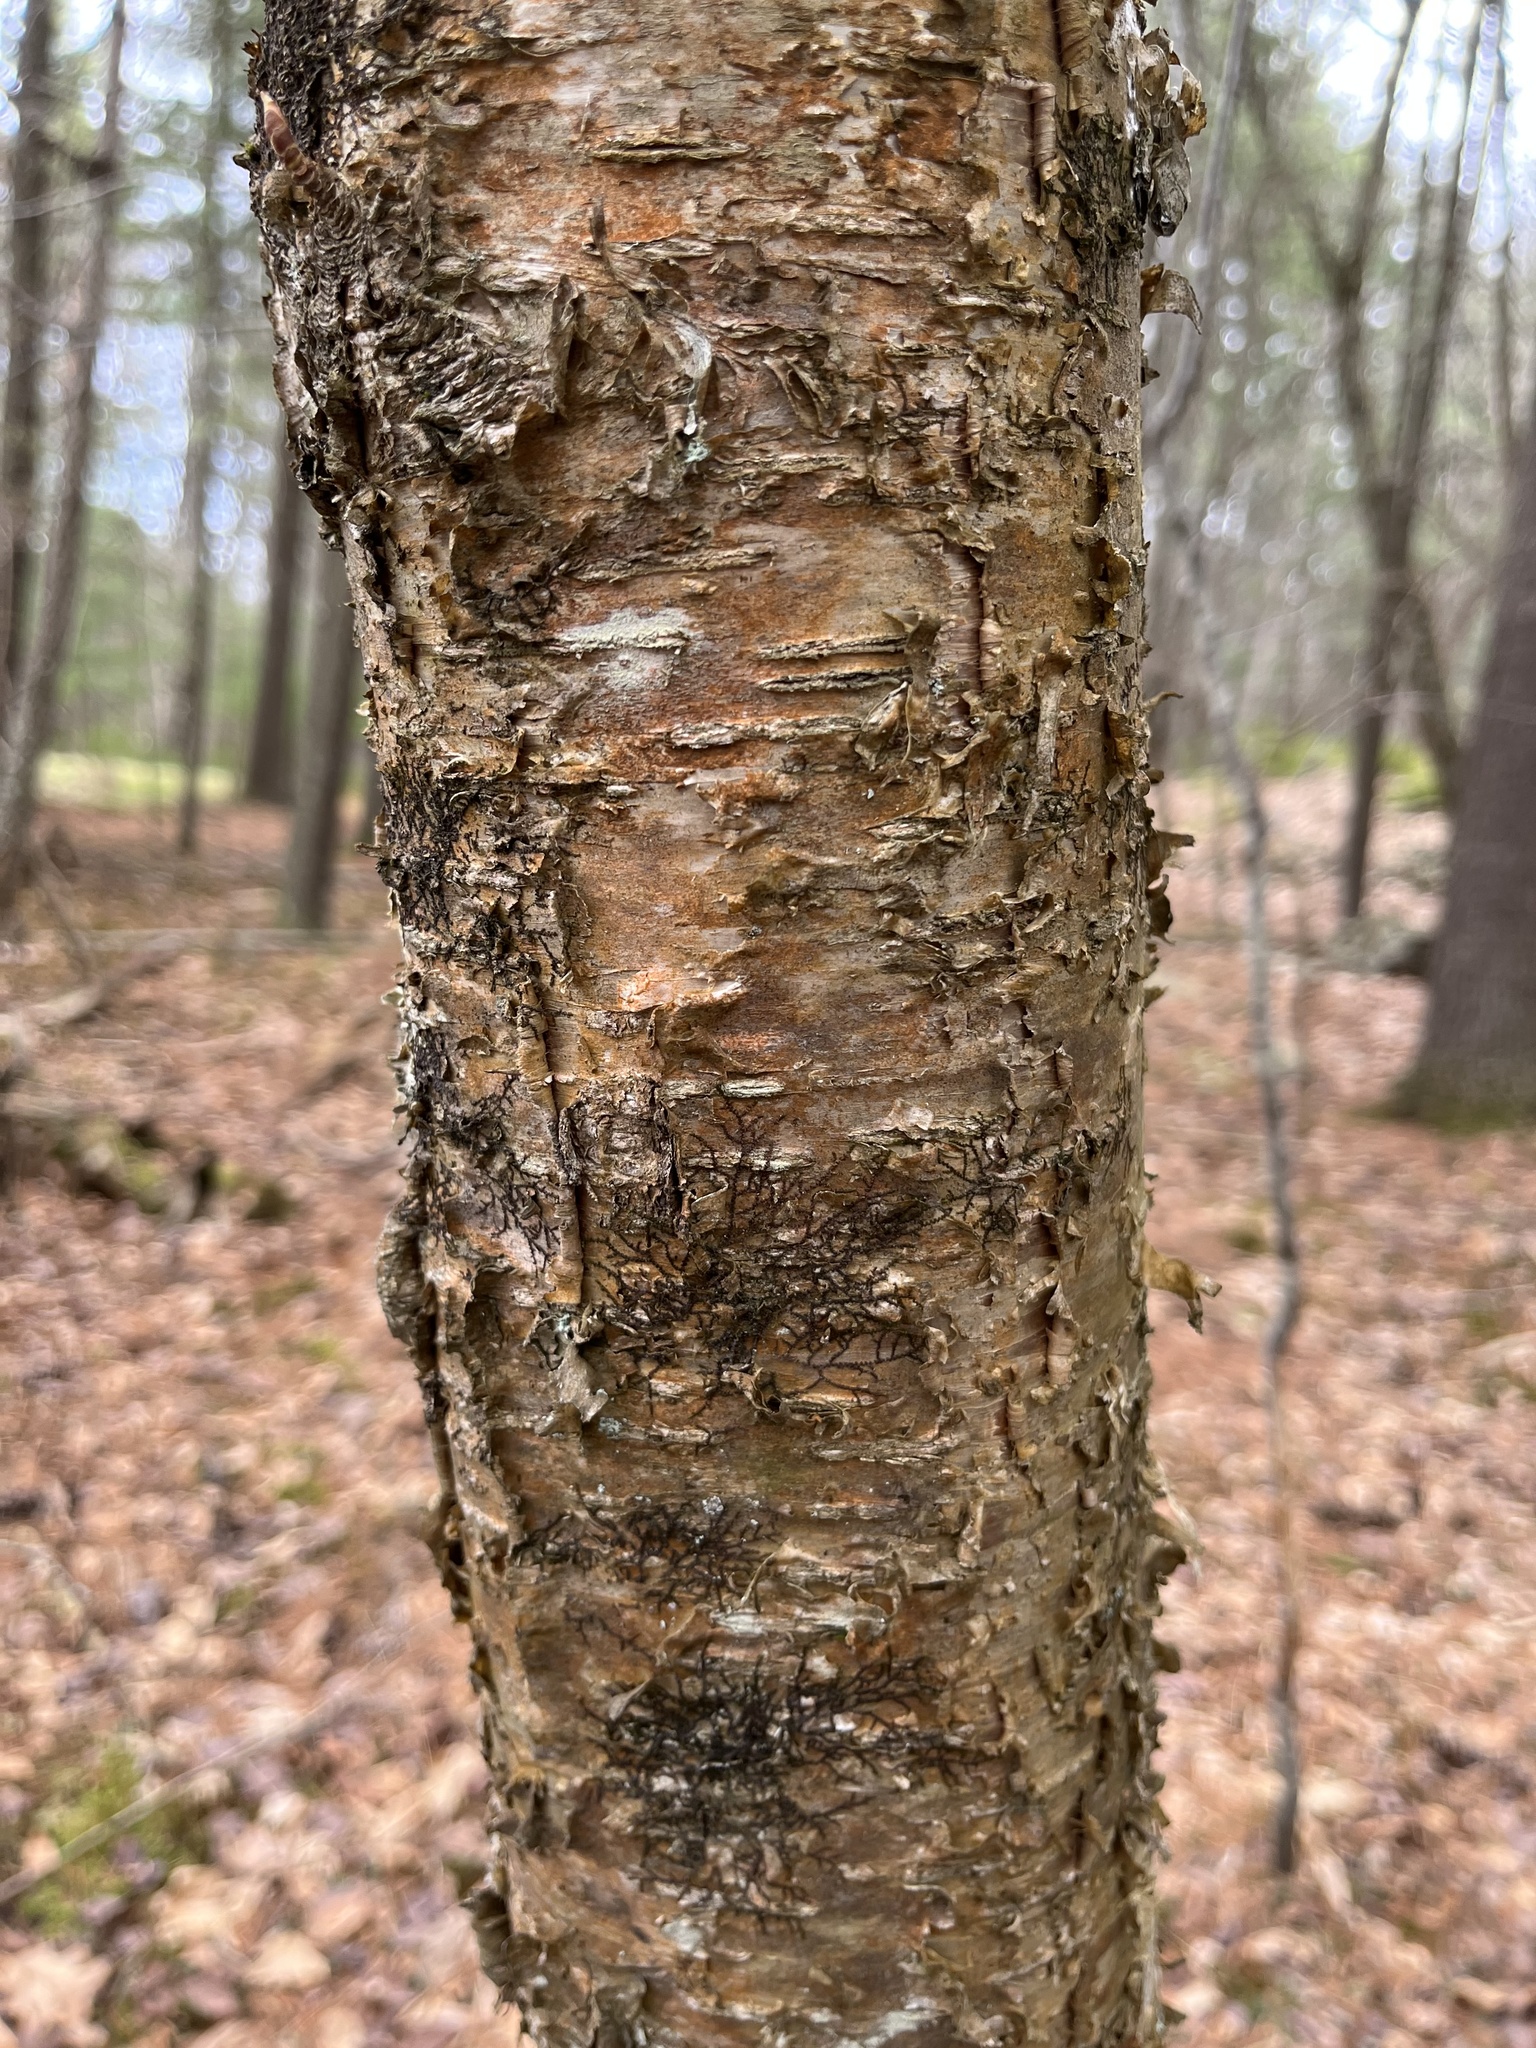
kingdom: Plantae
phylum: Tracheophyta
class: Magnoliopsida
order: Fagales
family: Betulaceae
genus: Betula
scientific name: Betula alleghaniensis
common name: Yellow birch
